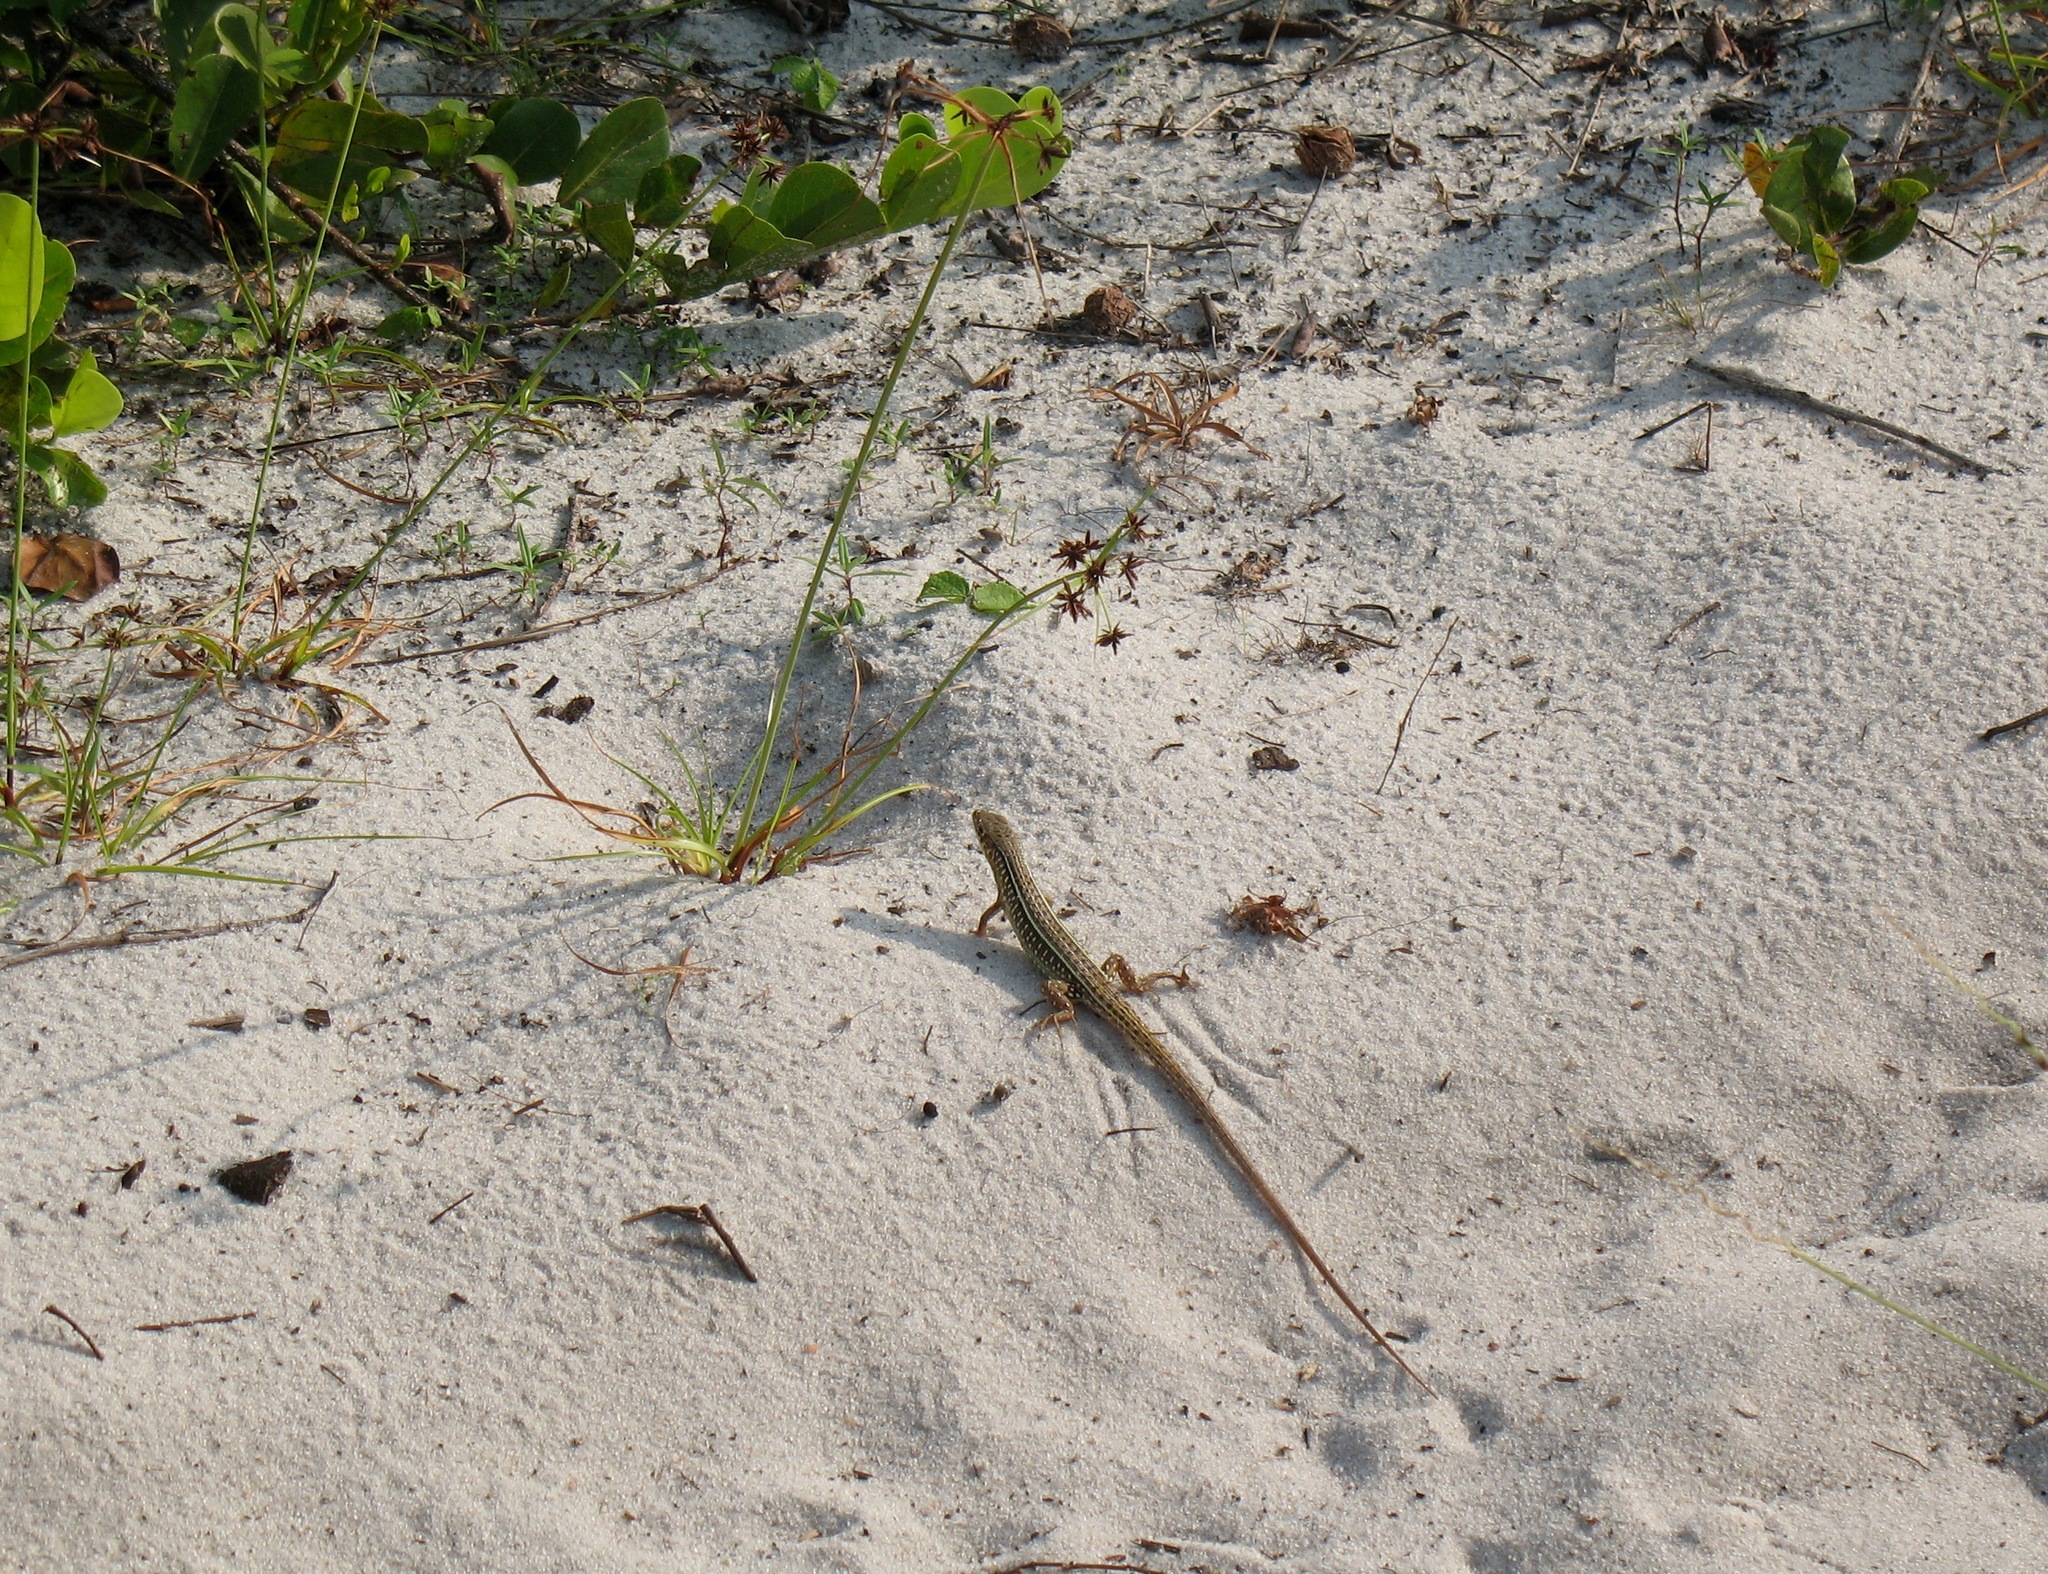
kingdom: Animalia
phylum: Chordata
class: Squamata
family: Gerrhosauridae
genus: Gerrhosaurus
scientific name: Gerrhosaurus nigrolineatus
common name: Black-lined plated lizard
